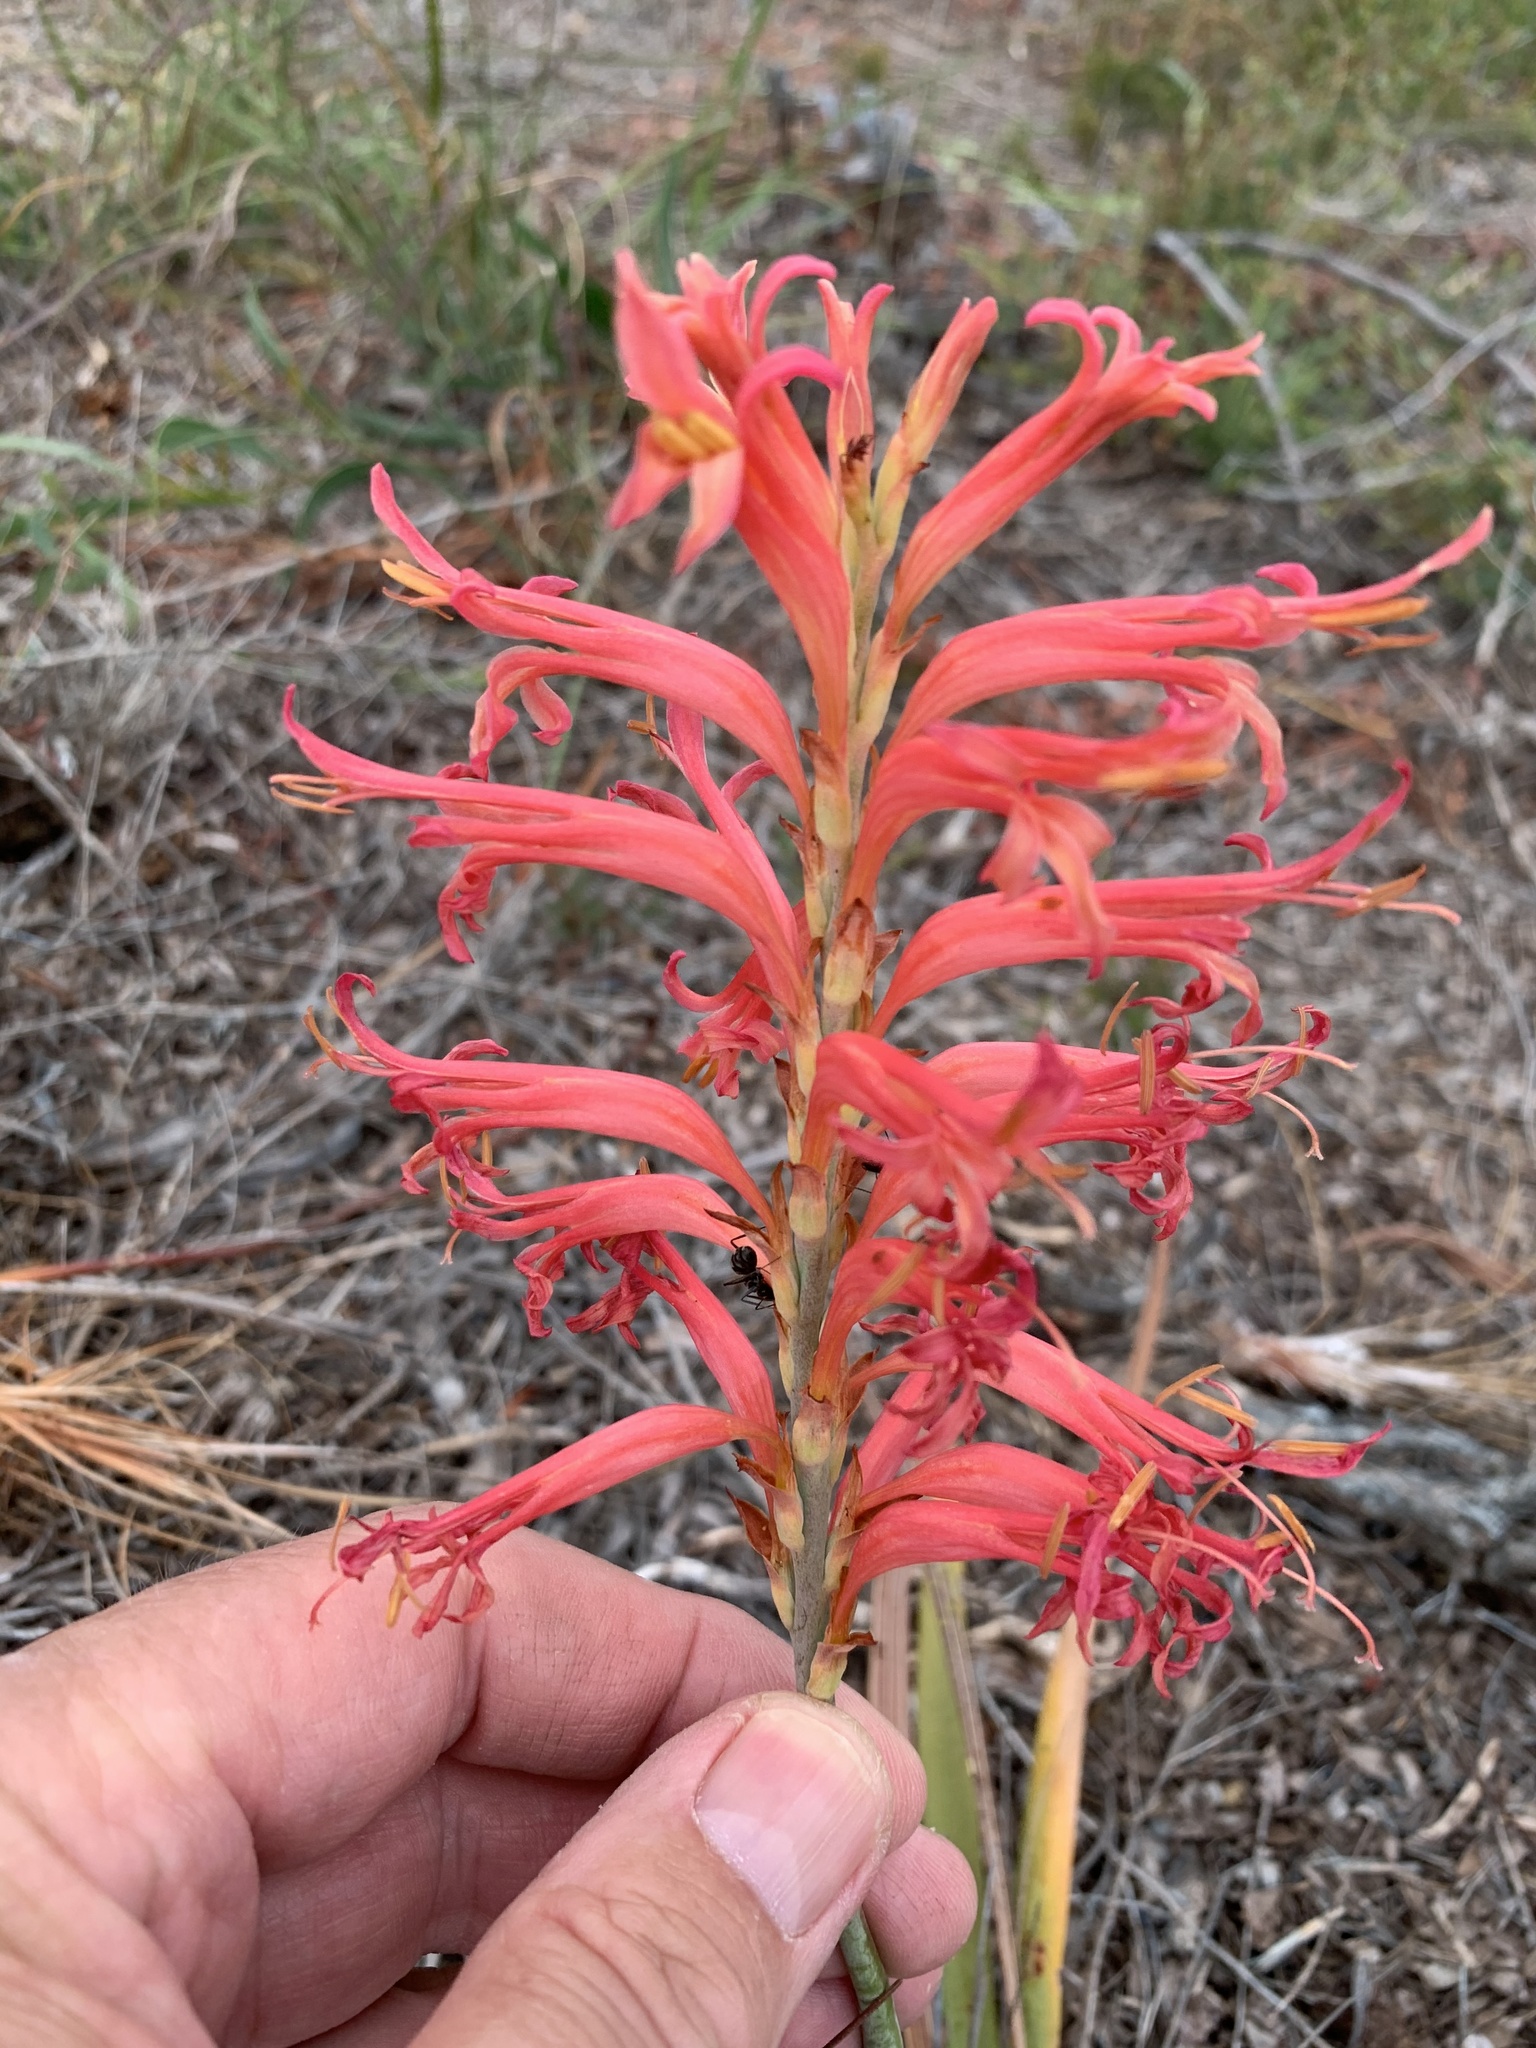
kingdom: Plantae
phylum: Tracheophyta
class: Liliopsida
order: Asparagales
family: Iridaceae
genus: Tritoniopsis
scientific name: Tritoniopsis antholyza
